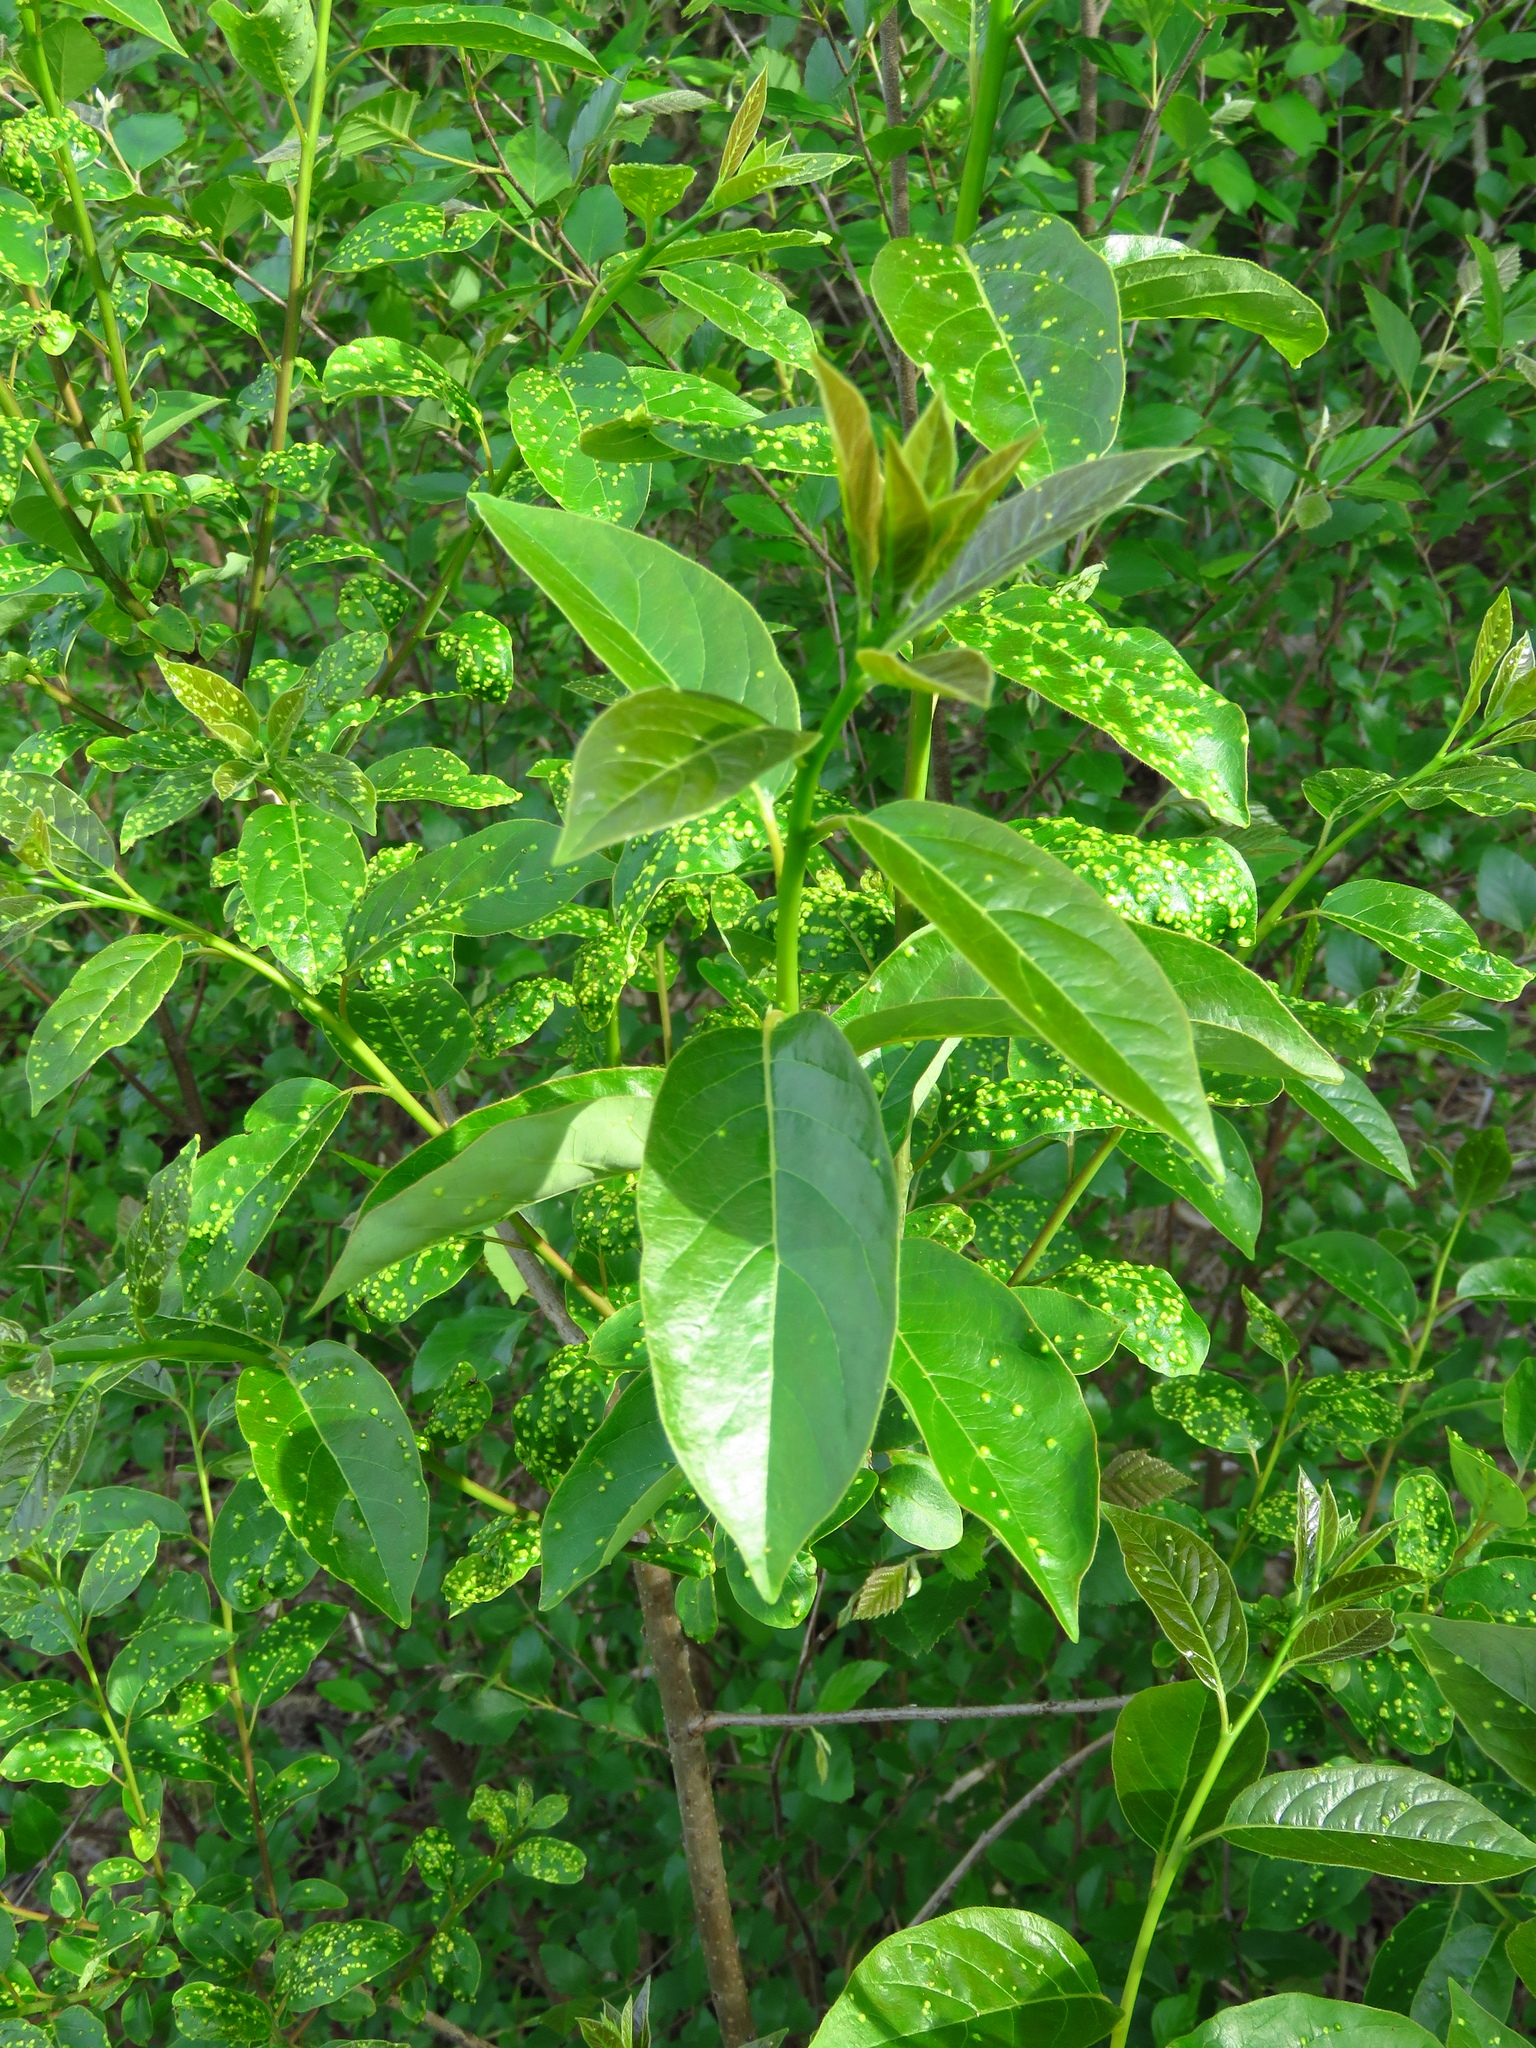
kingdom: Plantae
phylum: Tracheophyta
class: Magnoliopsida
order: Ericales
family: Ebenaceae
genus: Diospyros
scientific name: Diospyros virginiana
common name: Persimmon
